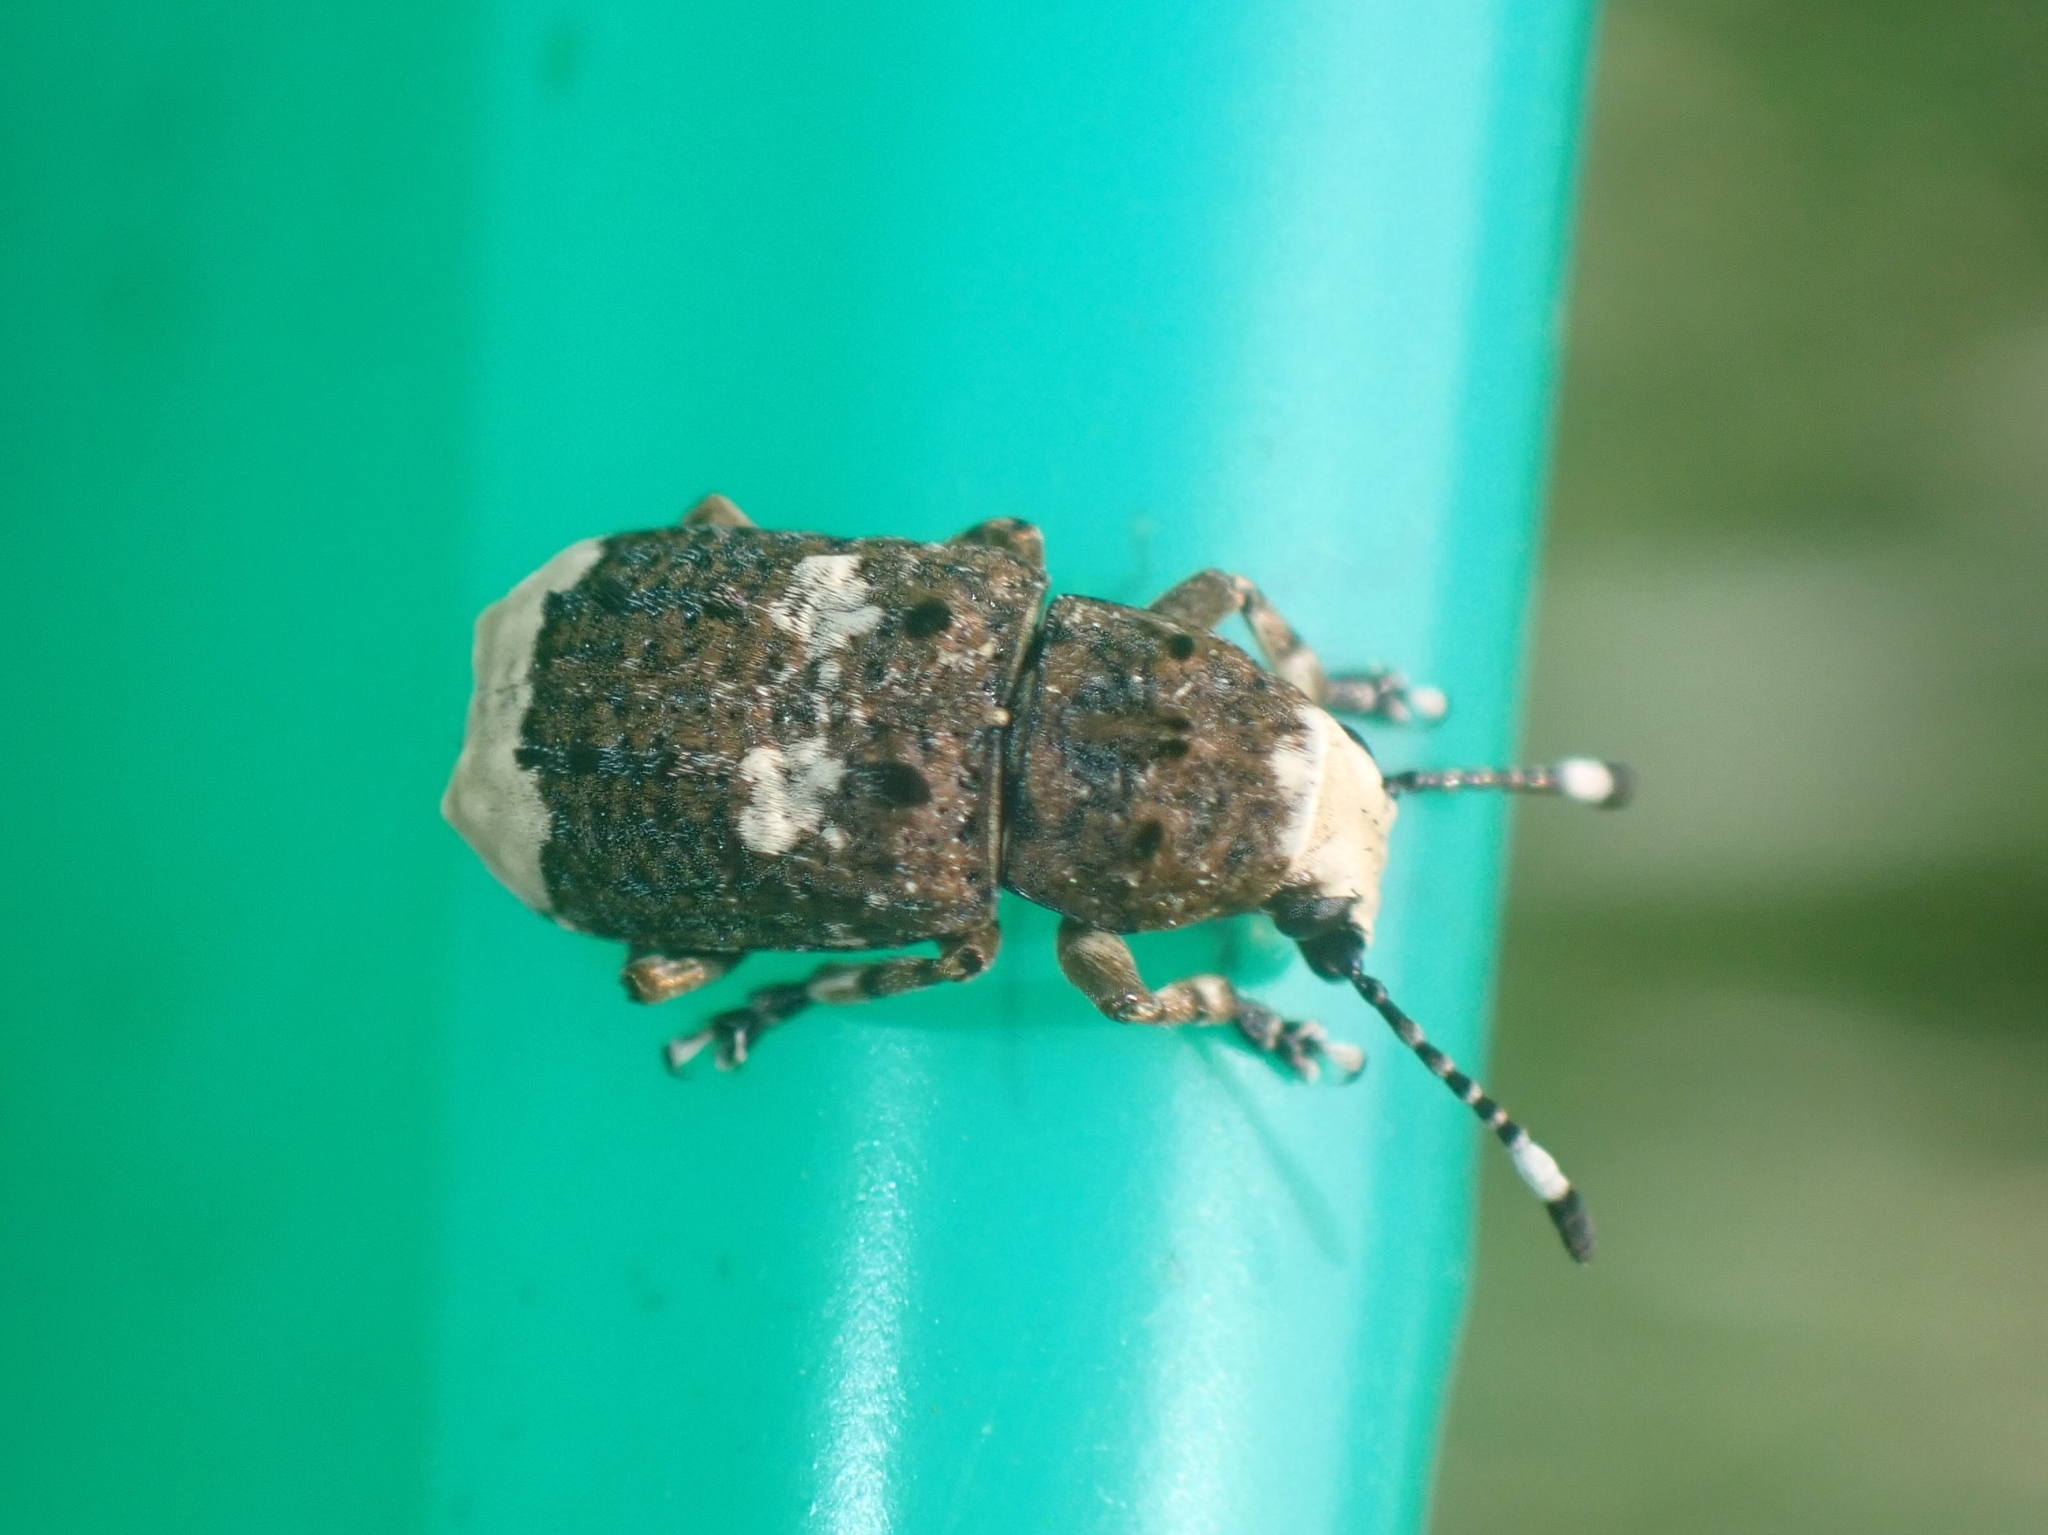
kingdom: Animalia
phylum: Arthropoda
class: Insecta
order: Coleoptera
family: Anthribidae
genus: Platystomos
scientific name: Platystomos albinus
